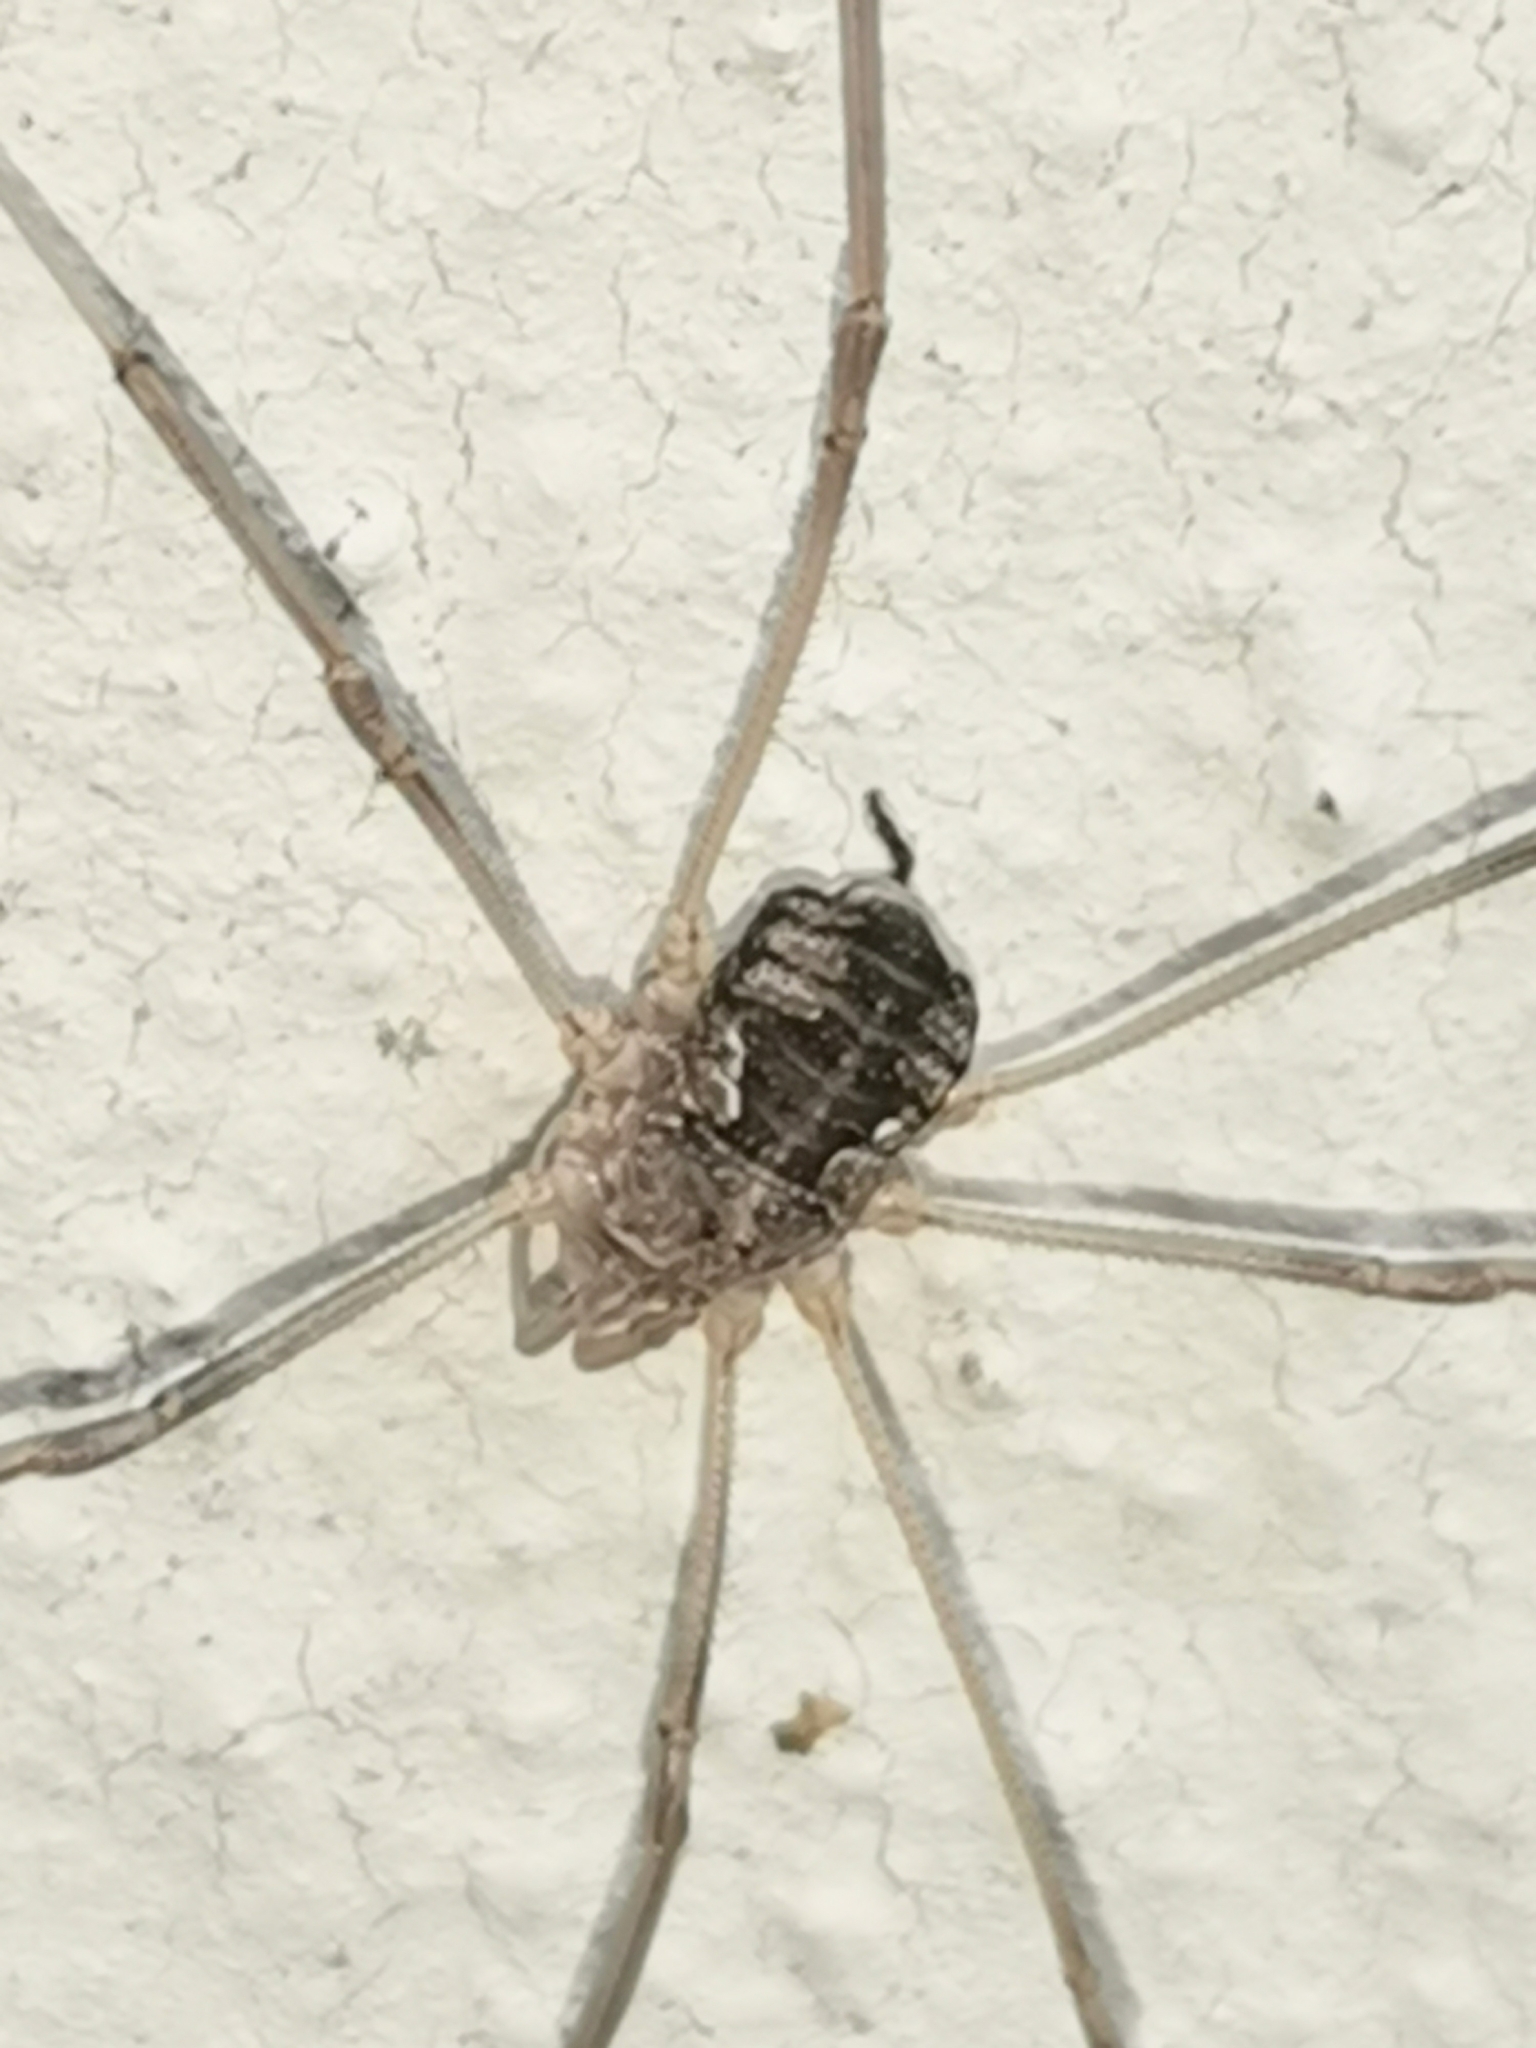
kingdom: Animalia
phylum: Arthropoda
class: Arachnida
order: Opiliones
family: Phalangiidae
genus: Phalangium
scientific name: Phalangium opilio
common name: Daddy longleg
